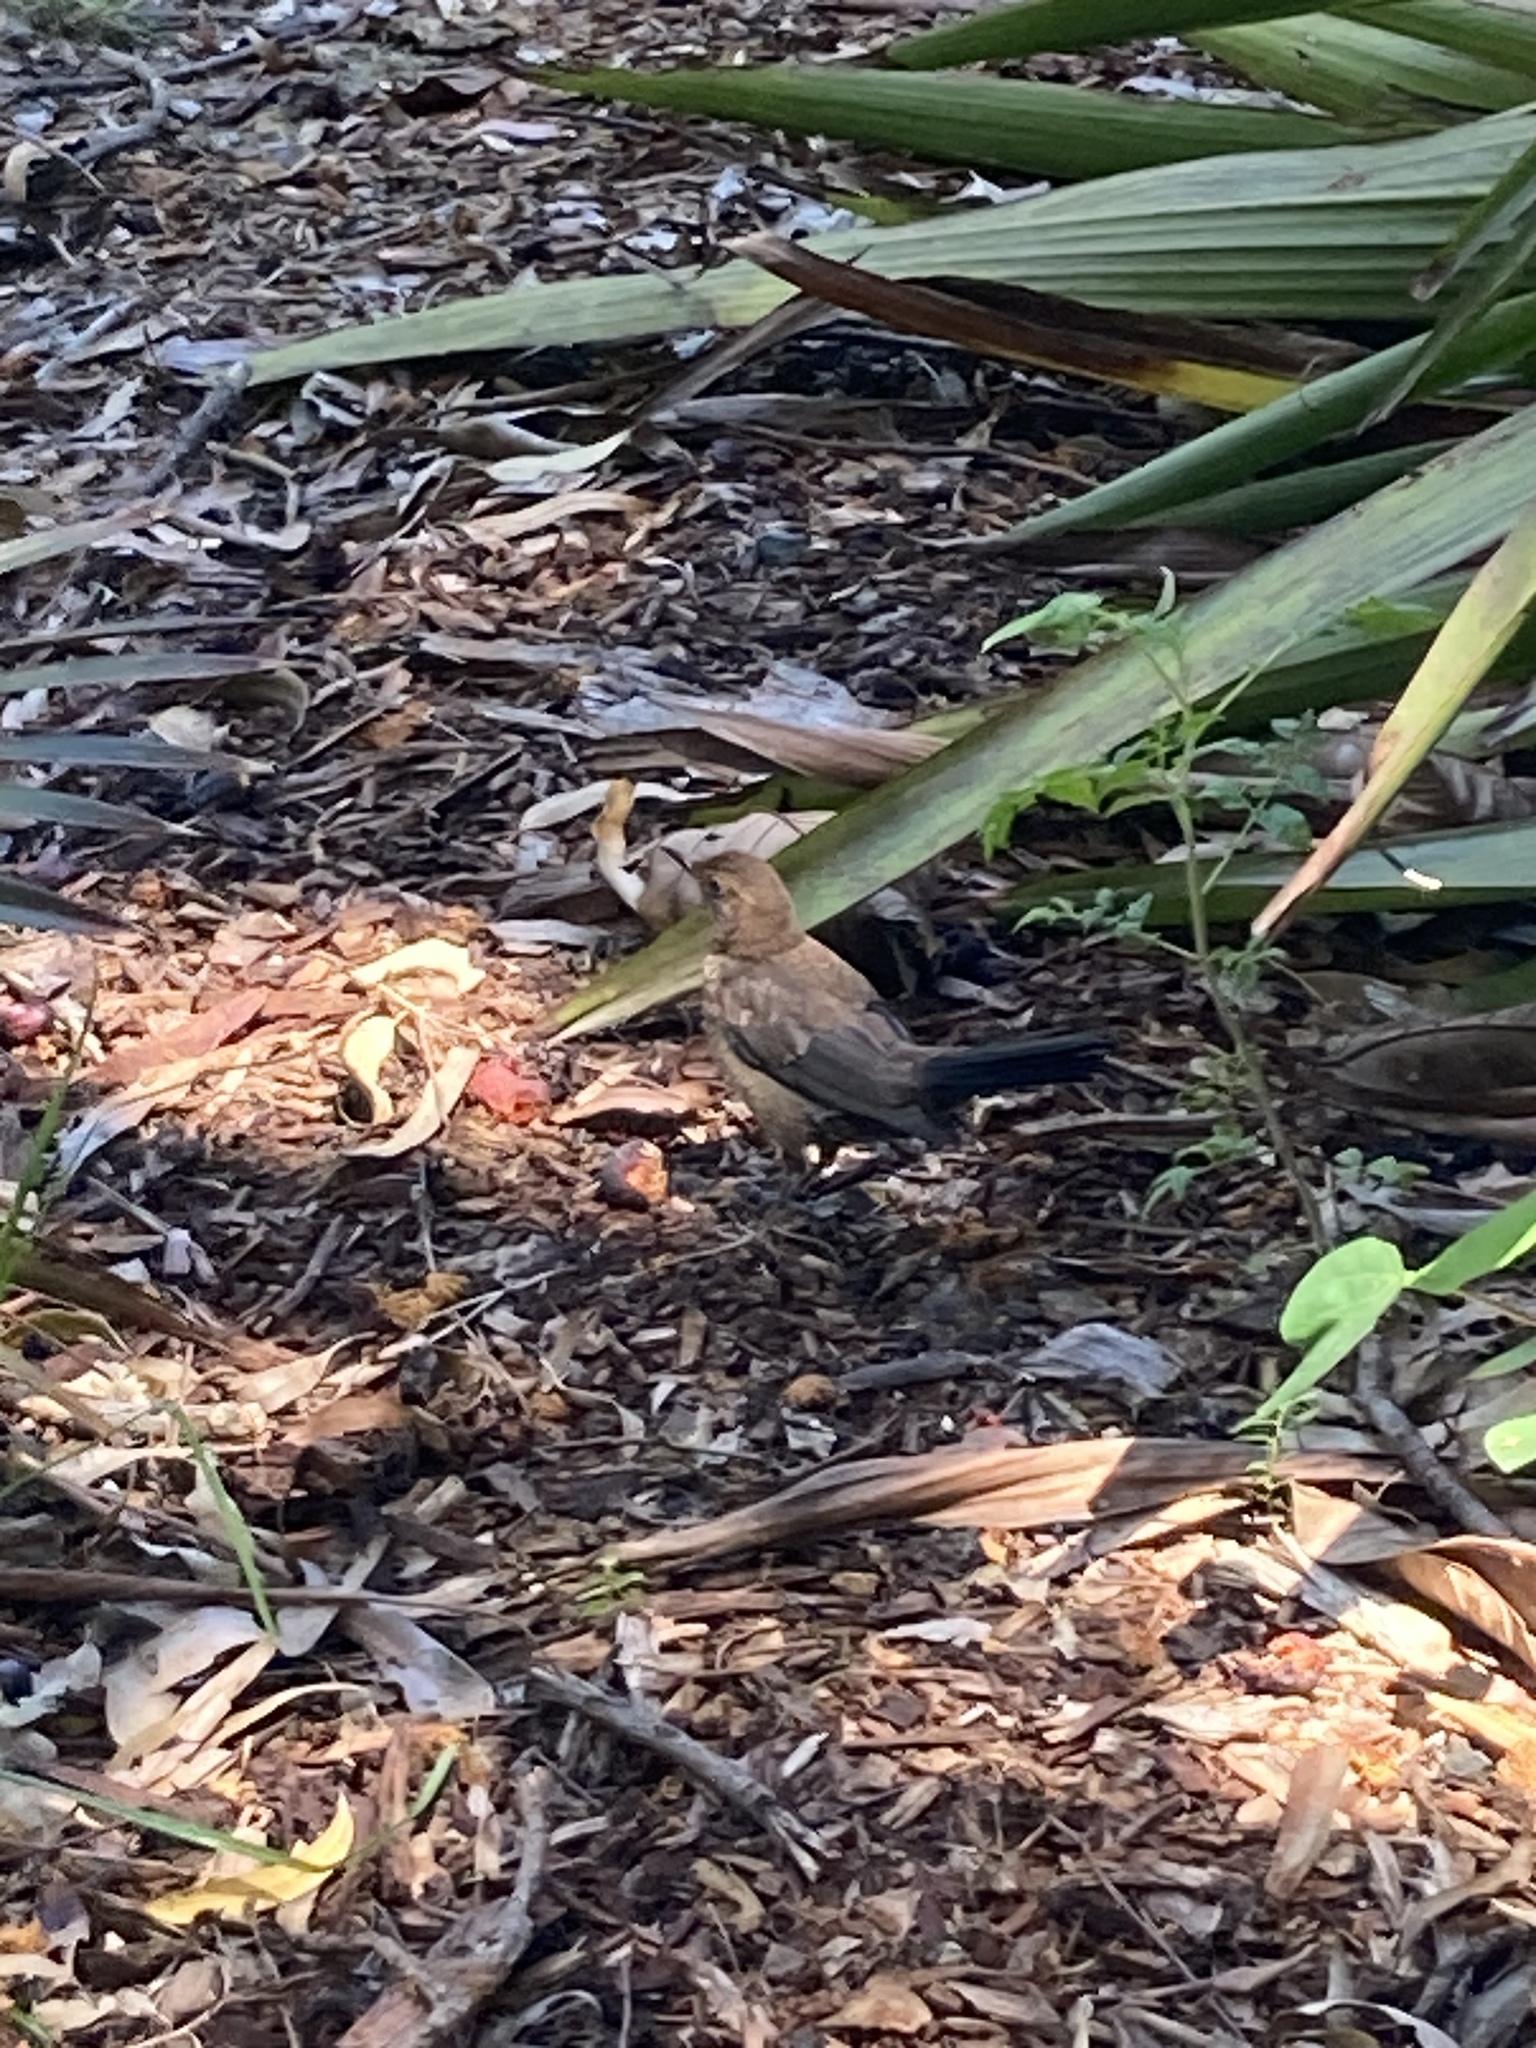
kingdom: Animalia
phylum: Chordata
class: Aves
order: Passeriformes
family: Turdidae
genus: Turdus
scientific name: Turdus merula
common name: Common blackbird
